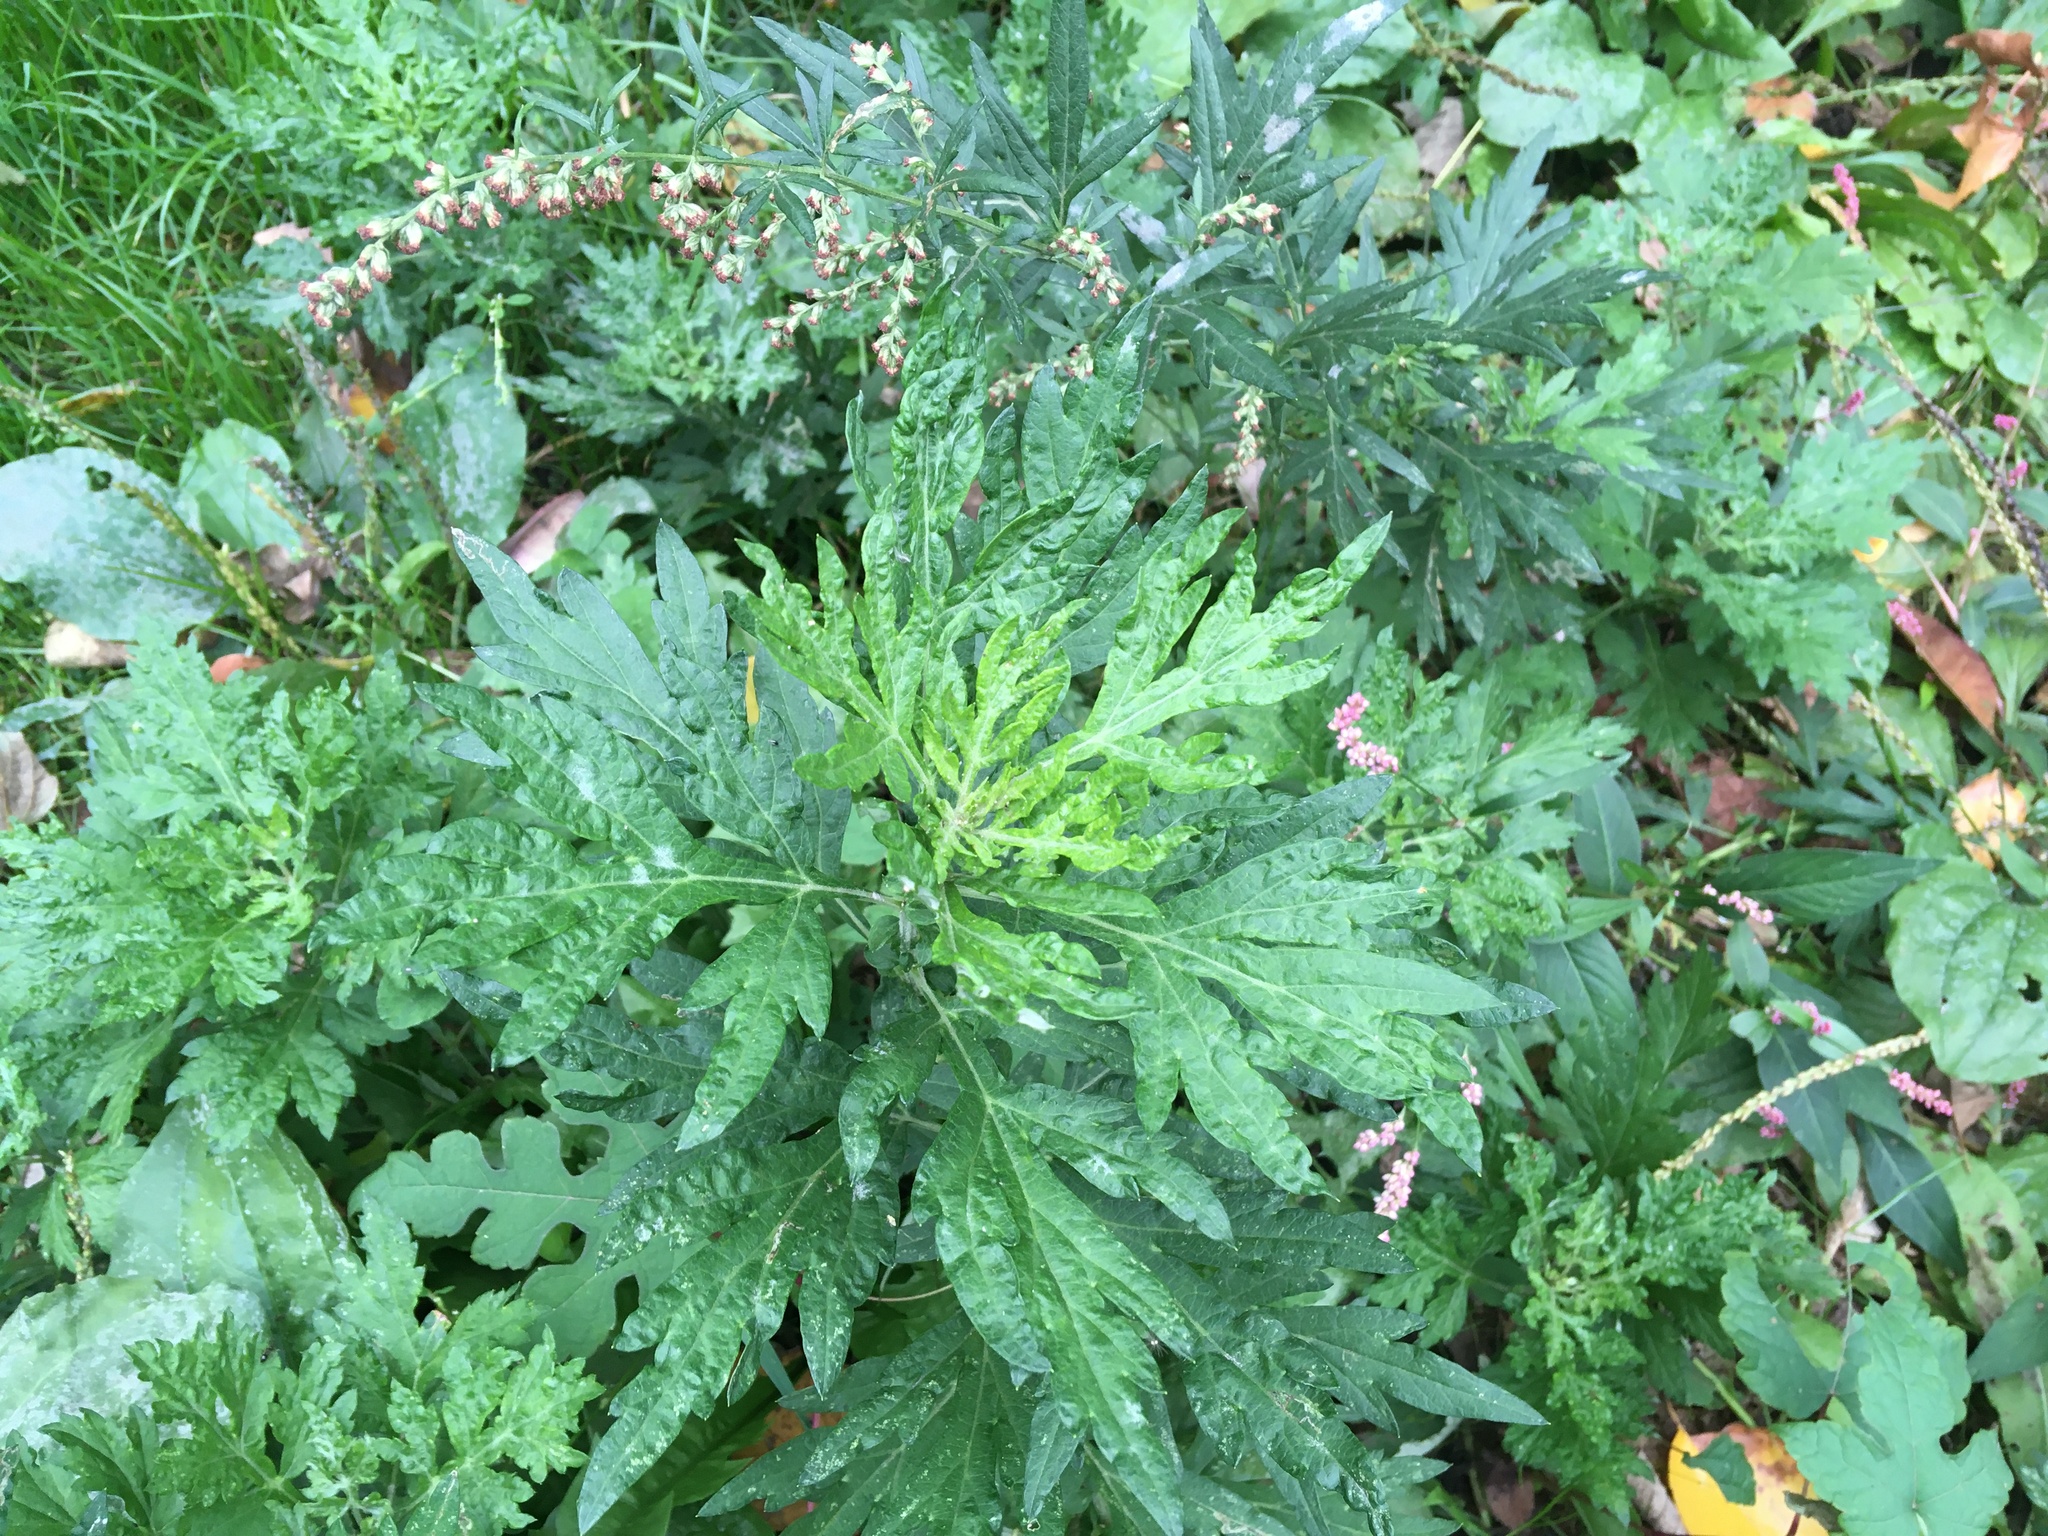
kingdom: Plantae
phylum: Tracheophyta
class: Magnoliopsida
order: Asterales
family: Asteraceae
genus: Artemisia
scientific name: Artemisia vulgaris
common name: Mugwort
